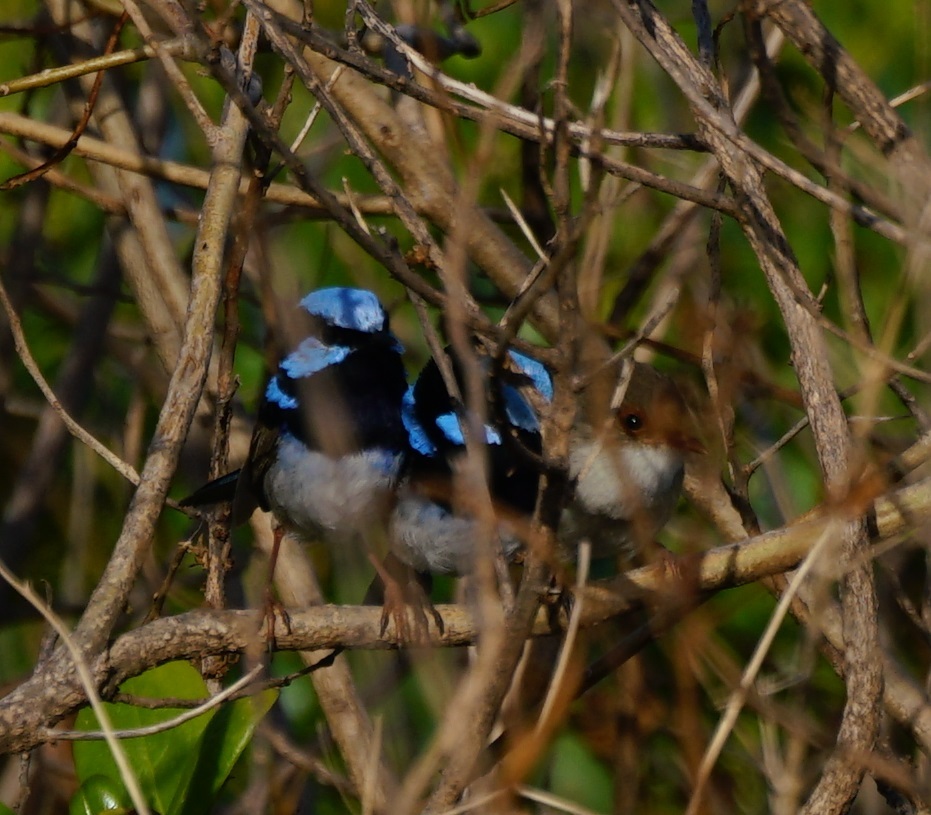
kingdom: Animalia
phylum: Chordata
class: Aves
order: Passeriformes
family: Maluridae
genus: Malurus
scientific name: Malurus cyaneus
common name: Superb fairywren
